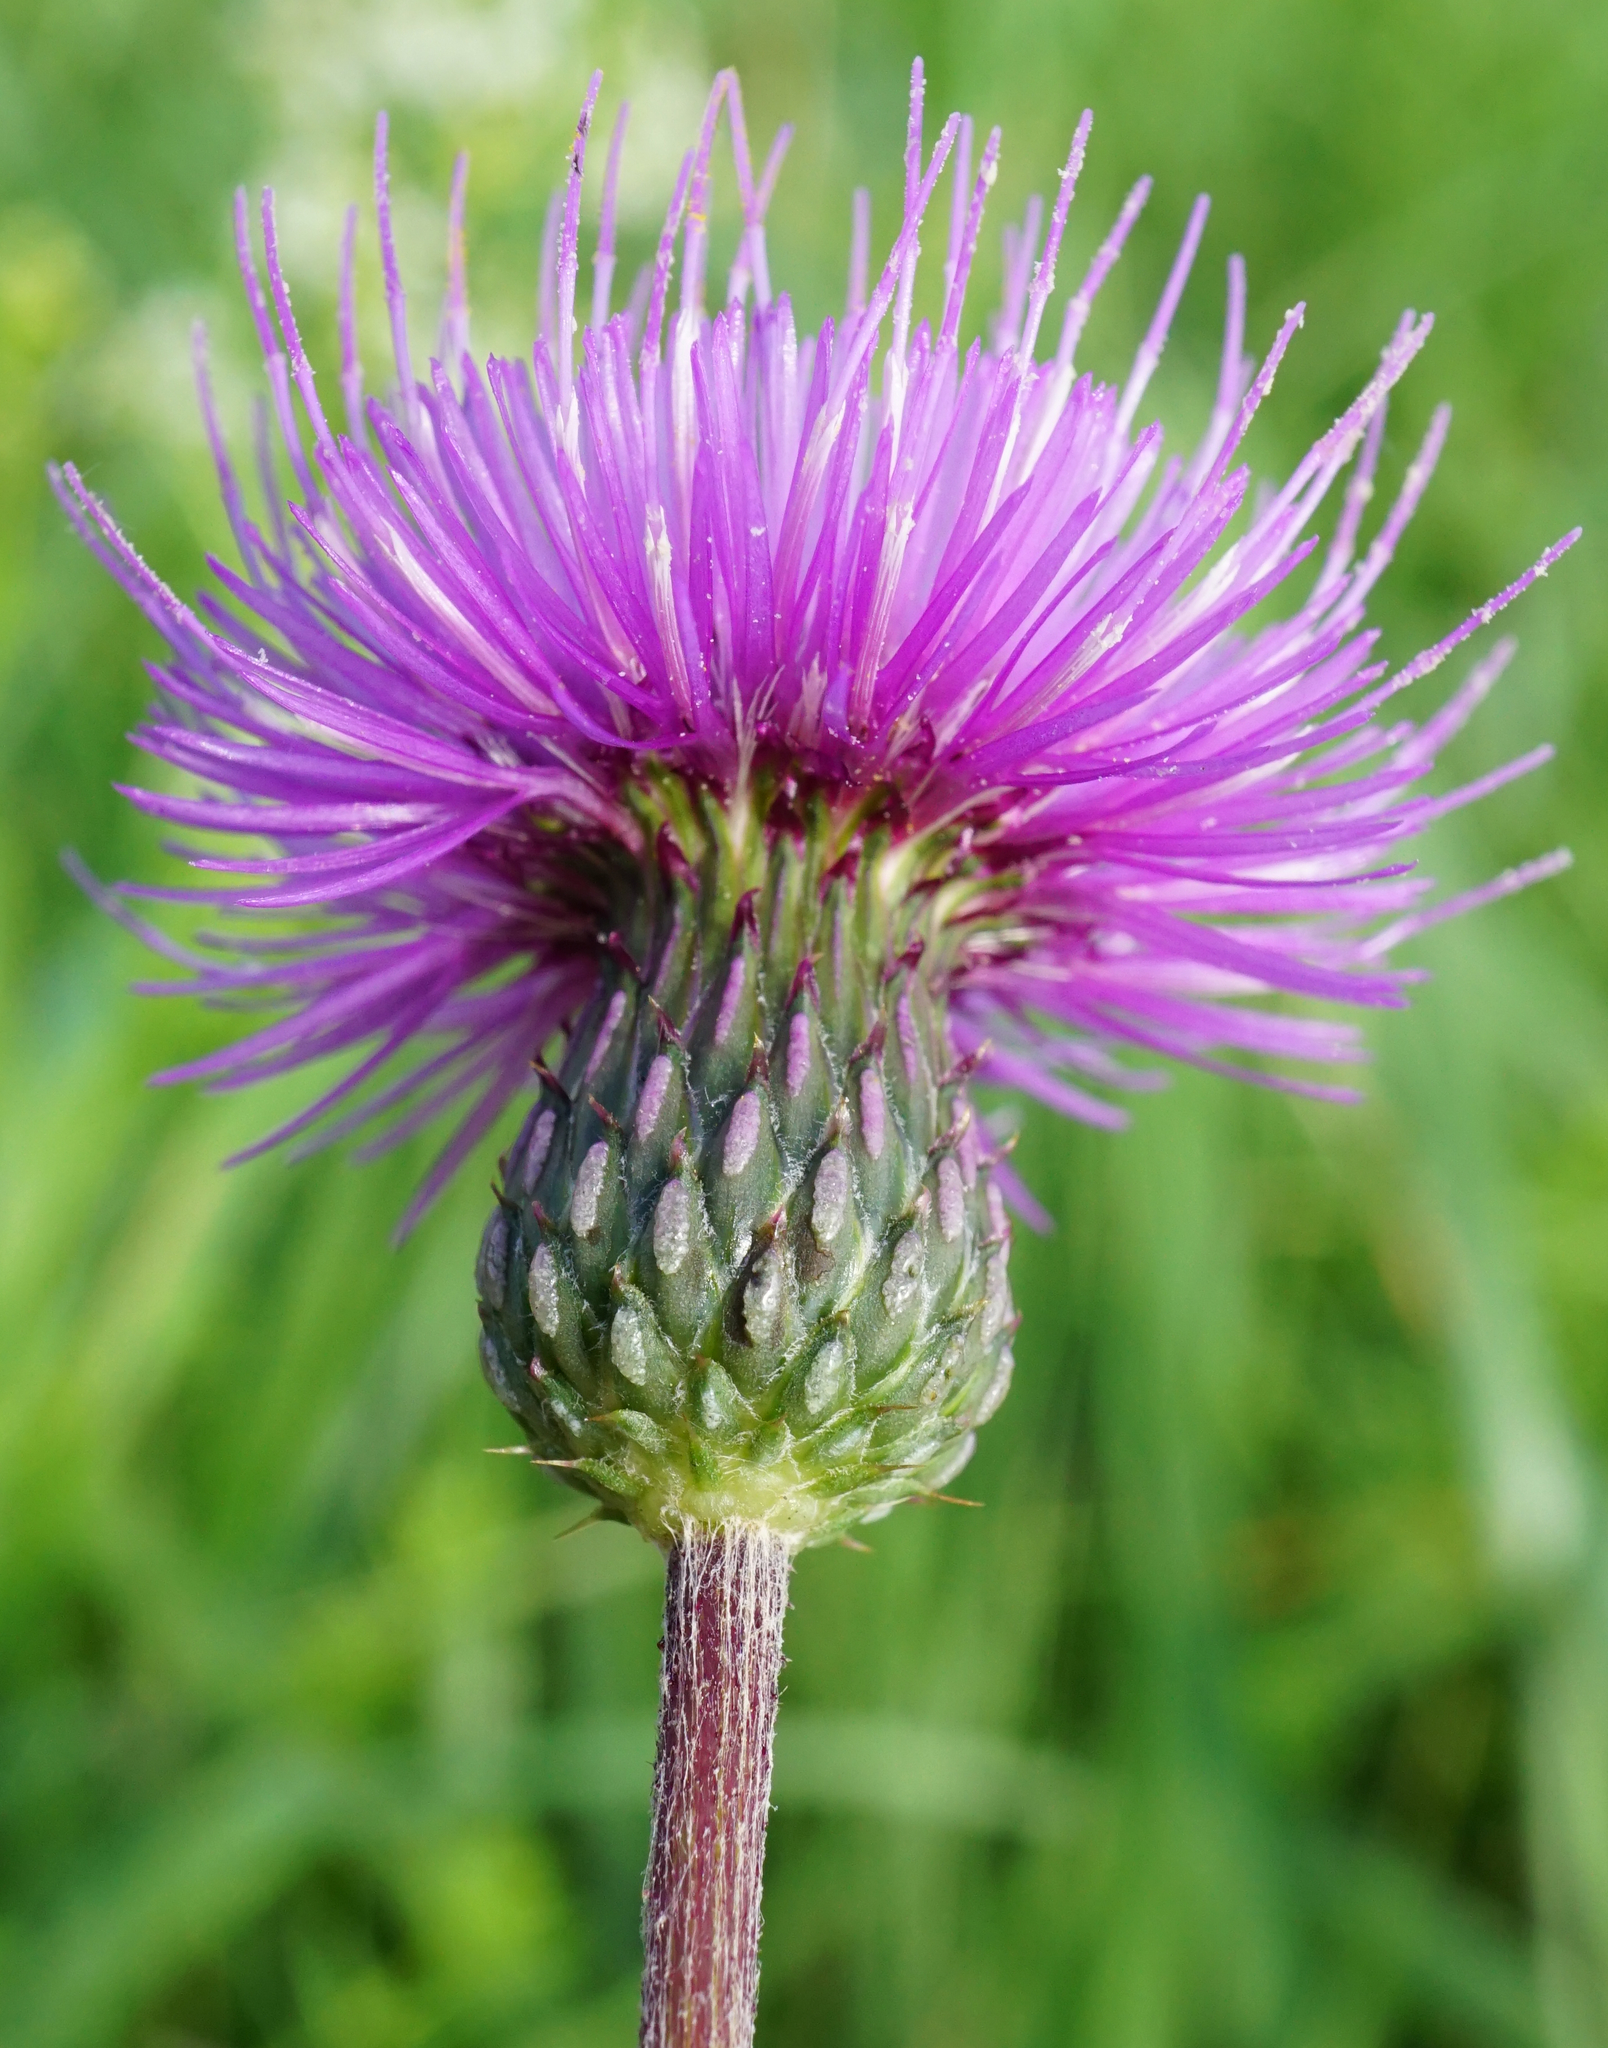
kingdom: Plantae
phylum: Tracheophyta
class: Magnoliopsida
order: Asterales
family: Asteraceae
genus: Cirsium
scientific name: Cirsium canum
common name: Queen anne's thistle
